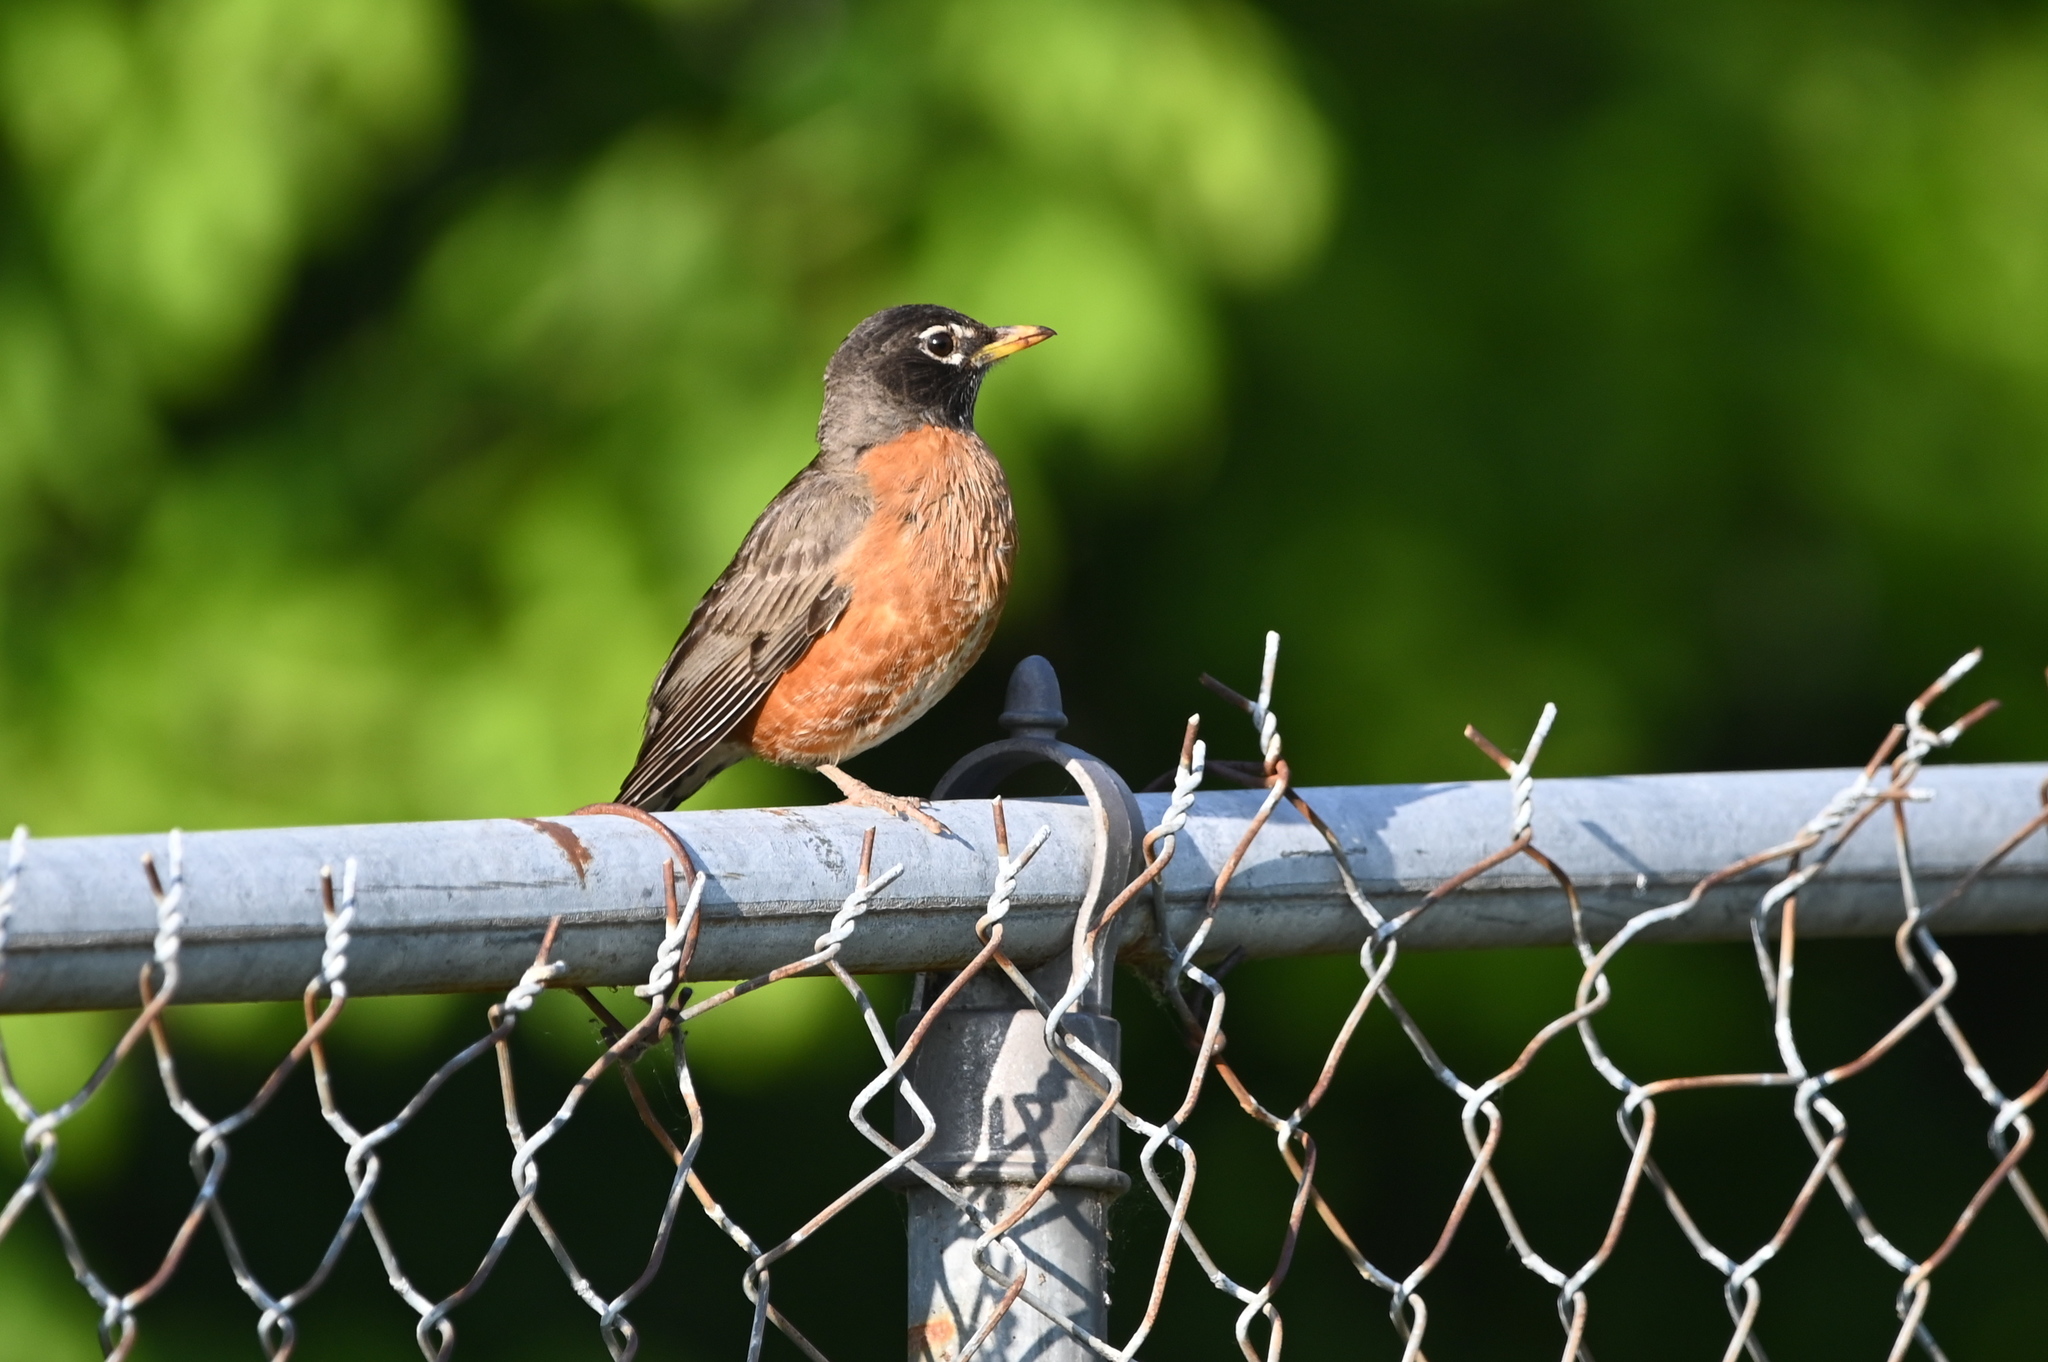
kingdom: Animalia
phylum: Chordata
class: Aves
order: Passeriformes
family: Turdidae
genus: Turdus
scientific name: Turdus migratorius
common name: American robin
